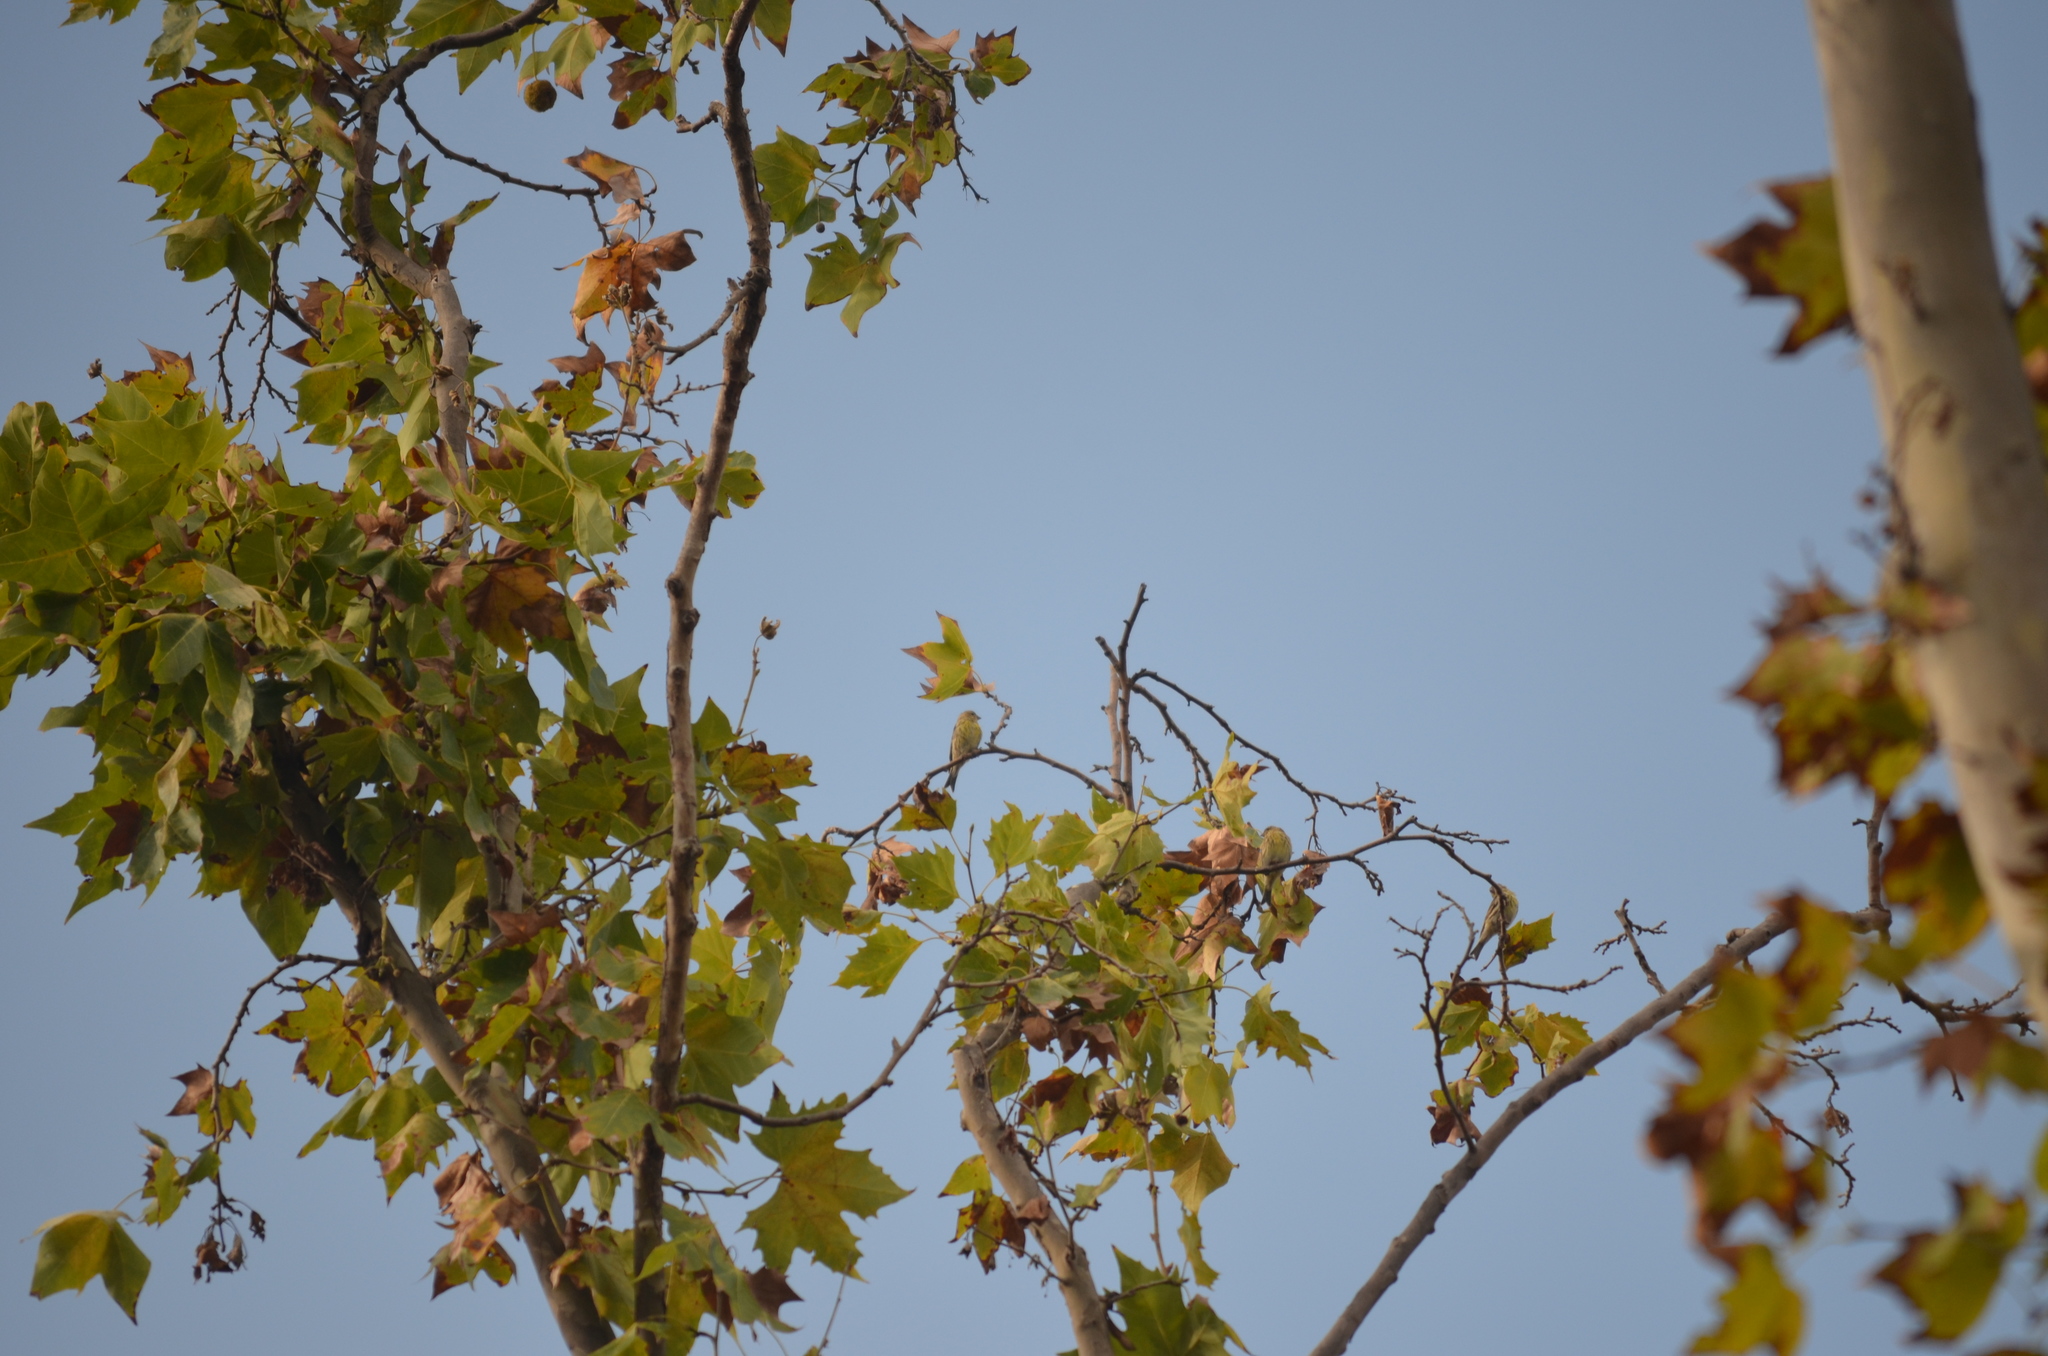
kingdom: Animalia
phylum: Chordata
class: Aves
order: Passeriformes
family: Fringillidae
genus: Serinus
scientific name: Serinus serinus
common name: European serin
